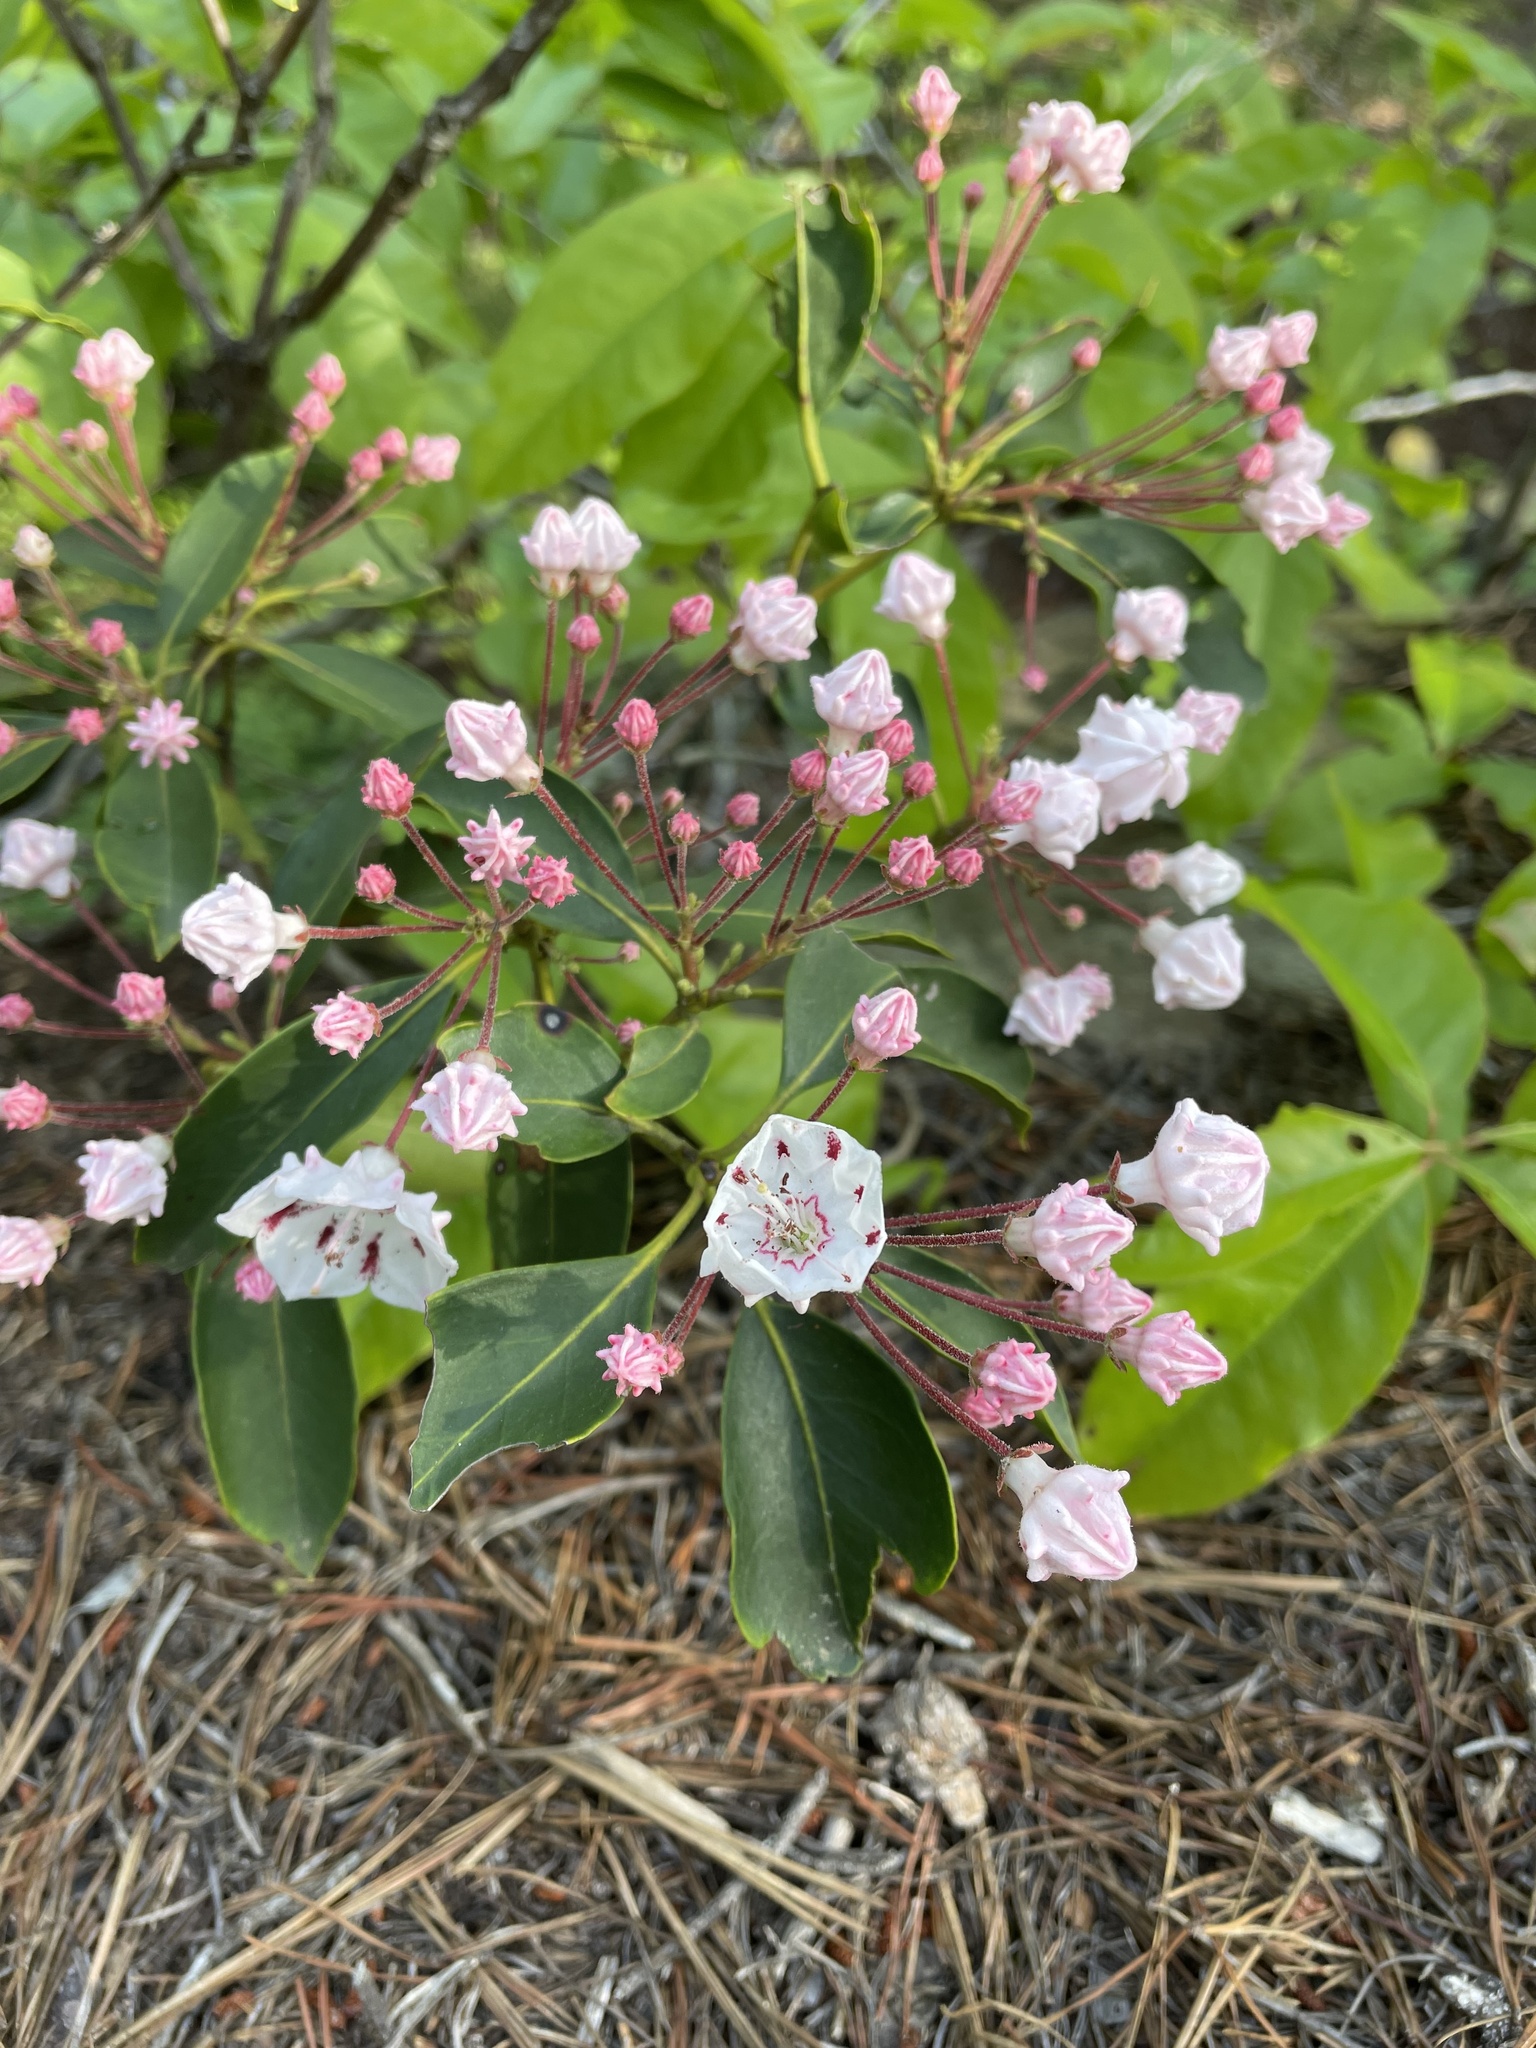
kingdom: Plantae
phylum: Tracheophyta
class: Magnoliopsida
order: Ericales
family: Ericaceae
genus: Kalmia
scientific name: Kalmia latifolia
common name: Mountain-laurel
